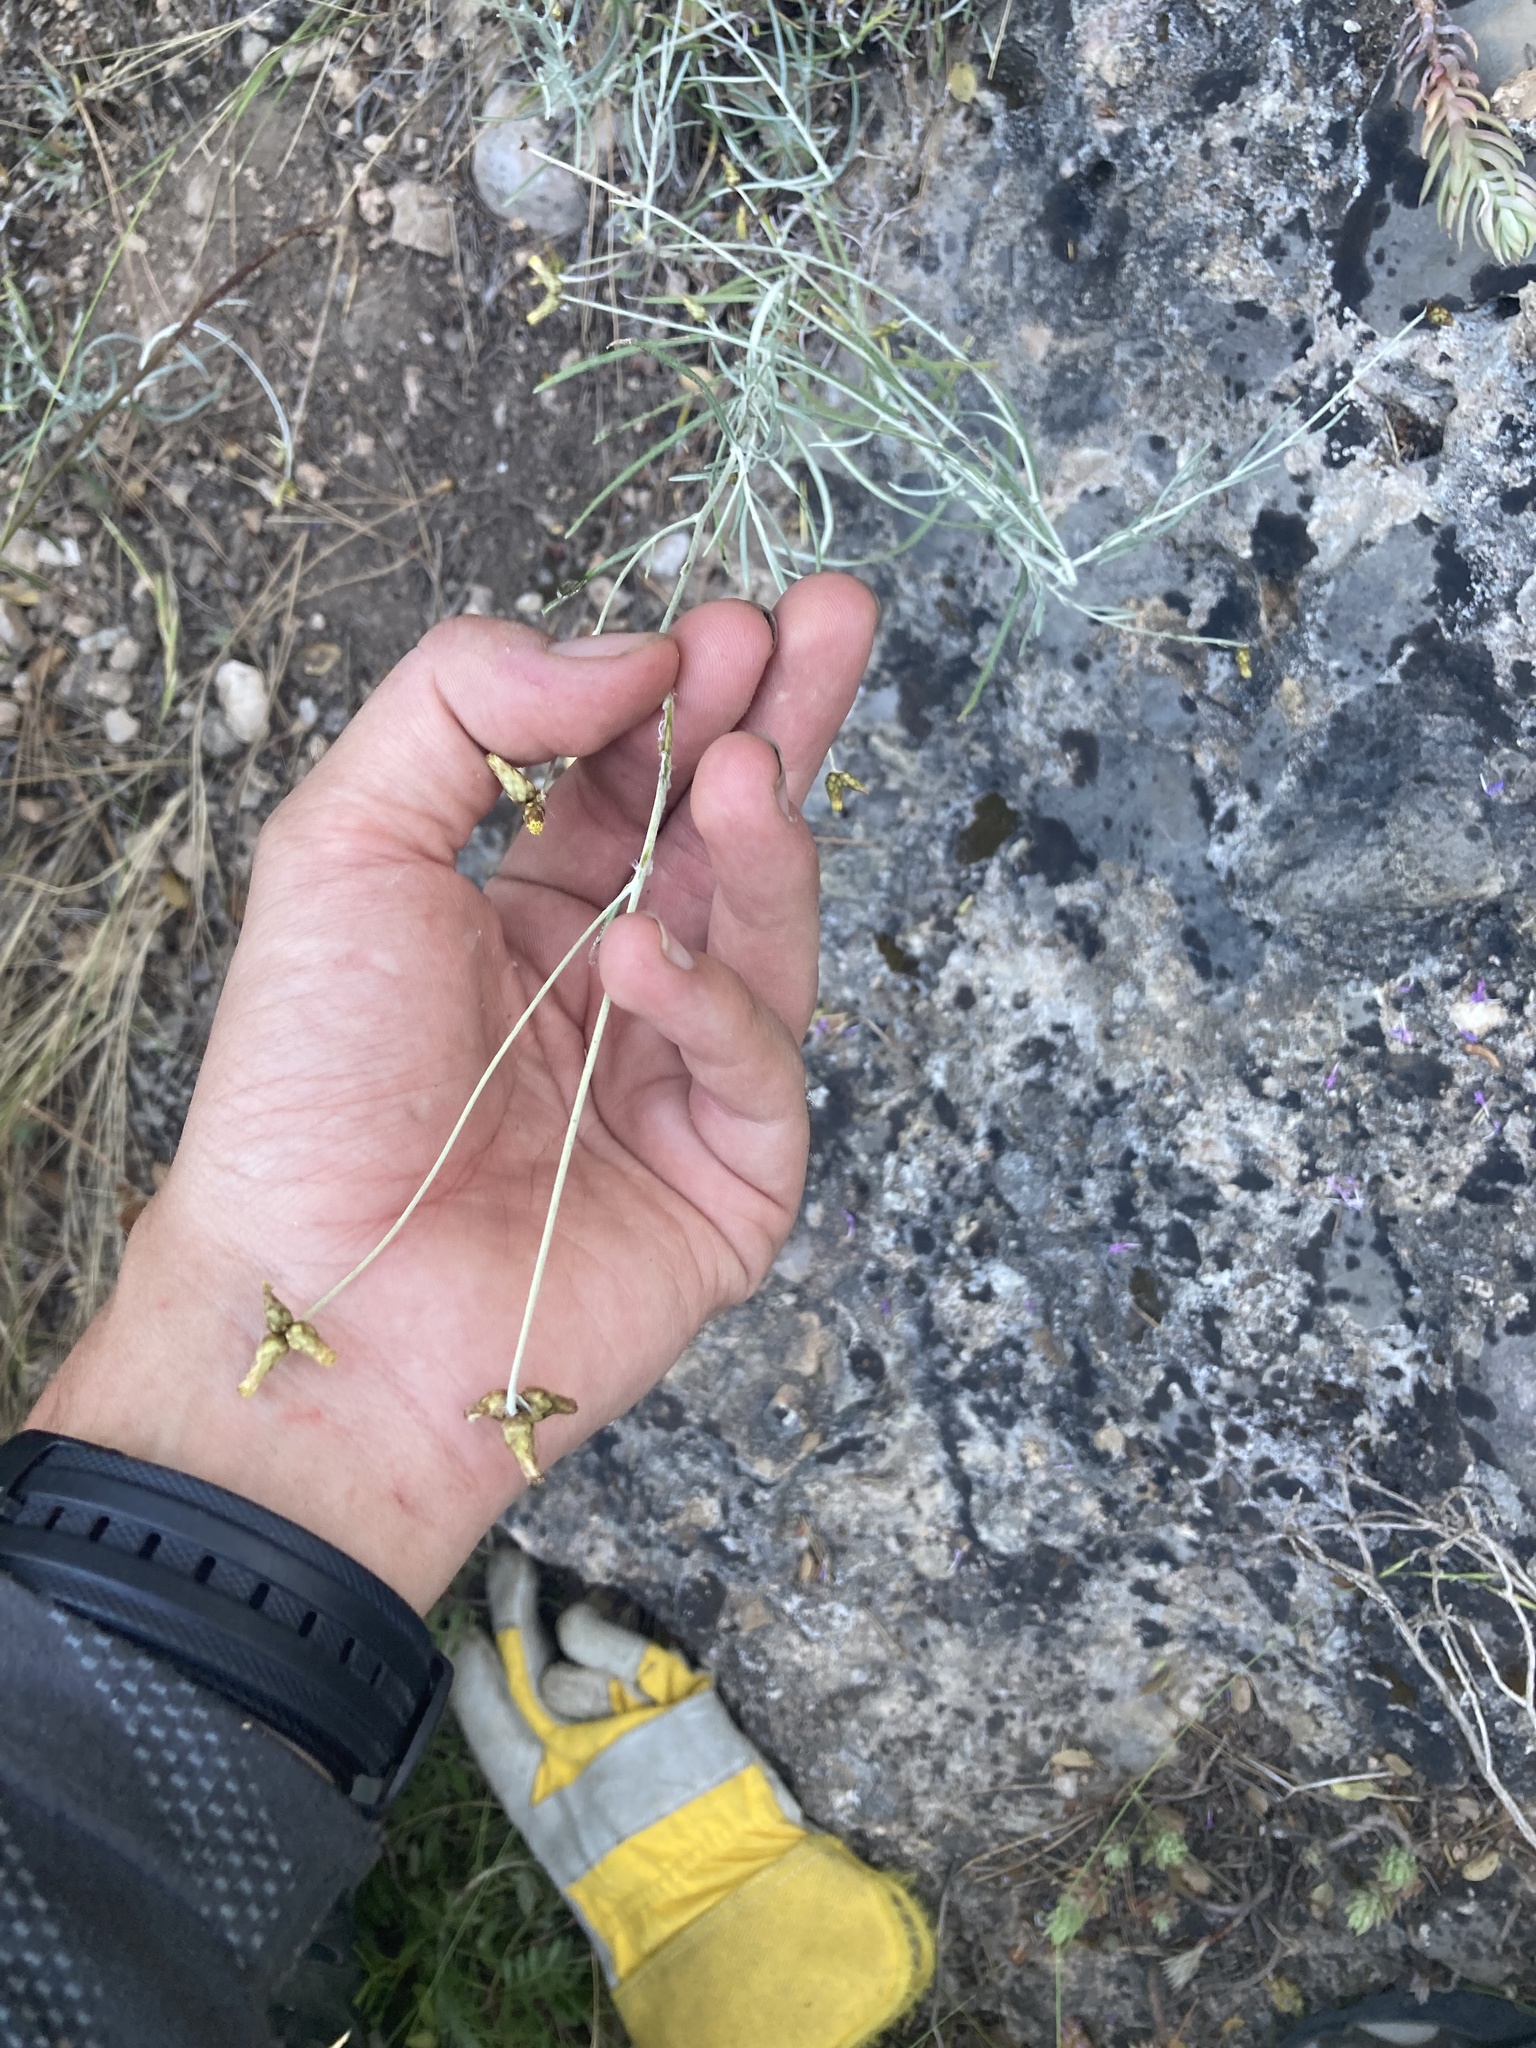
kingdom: Plantae
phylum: Tracheophyta
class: Magnoliopsida
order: Asterales
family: Asteraceae
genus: Phagnalon
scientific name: Phagnalon sordidum
